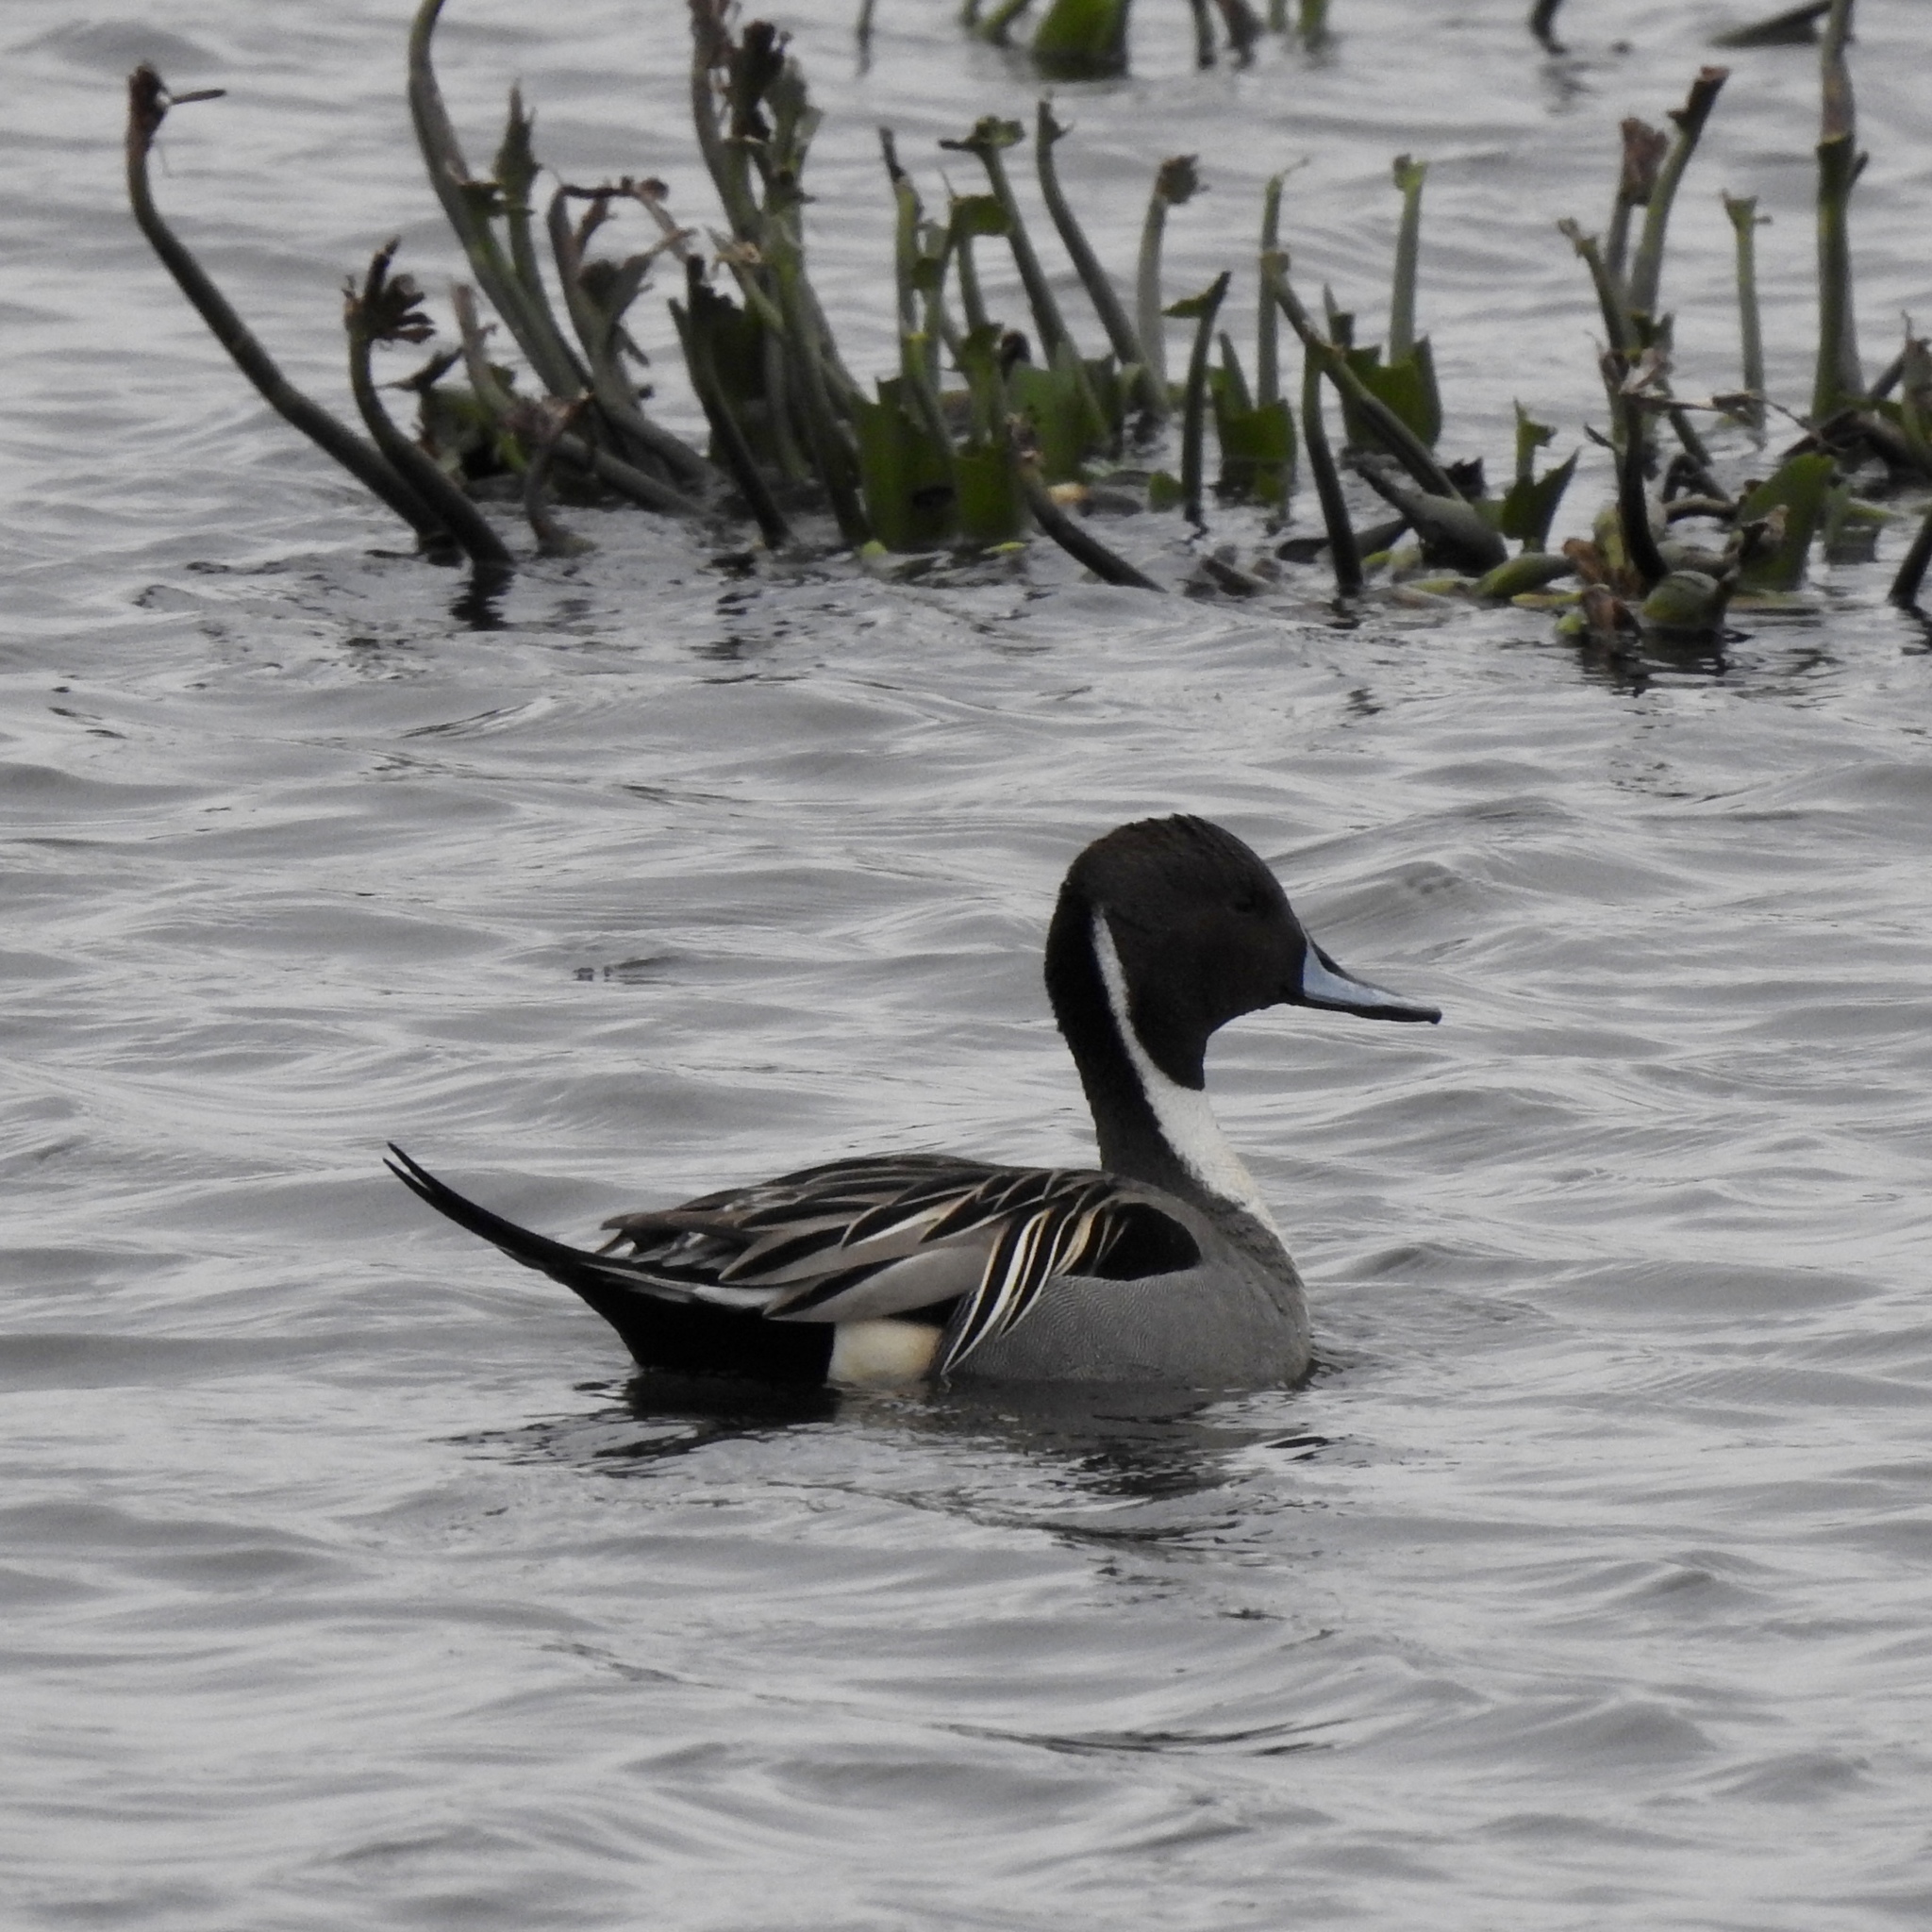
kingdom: Animalia
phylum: Chordata
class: Aves
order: Anseriformes
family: Anatidae
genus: Anas
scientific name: Anas acuta
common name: Northern pintail
